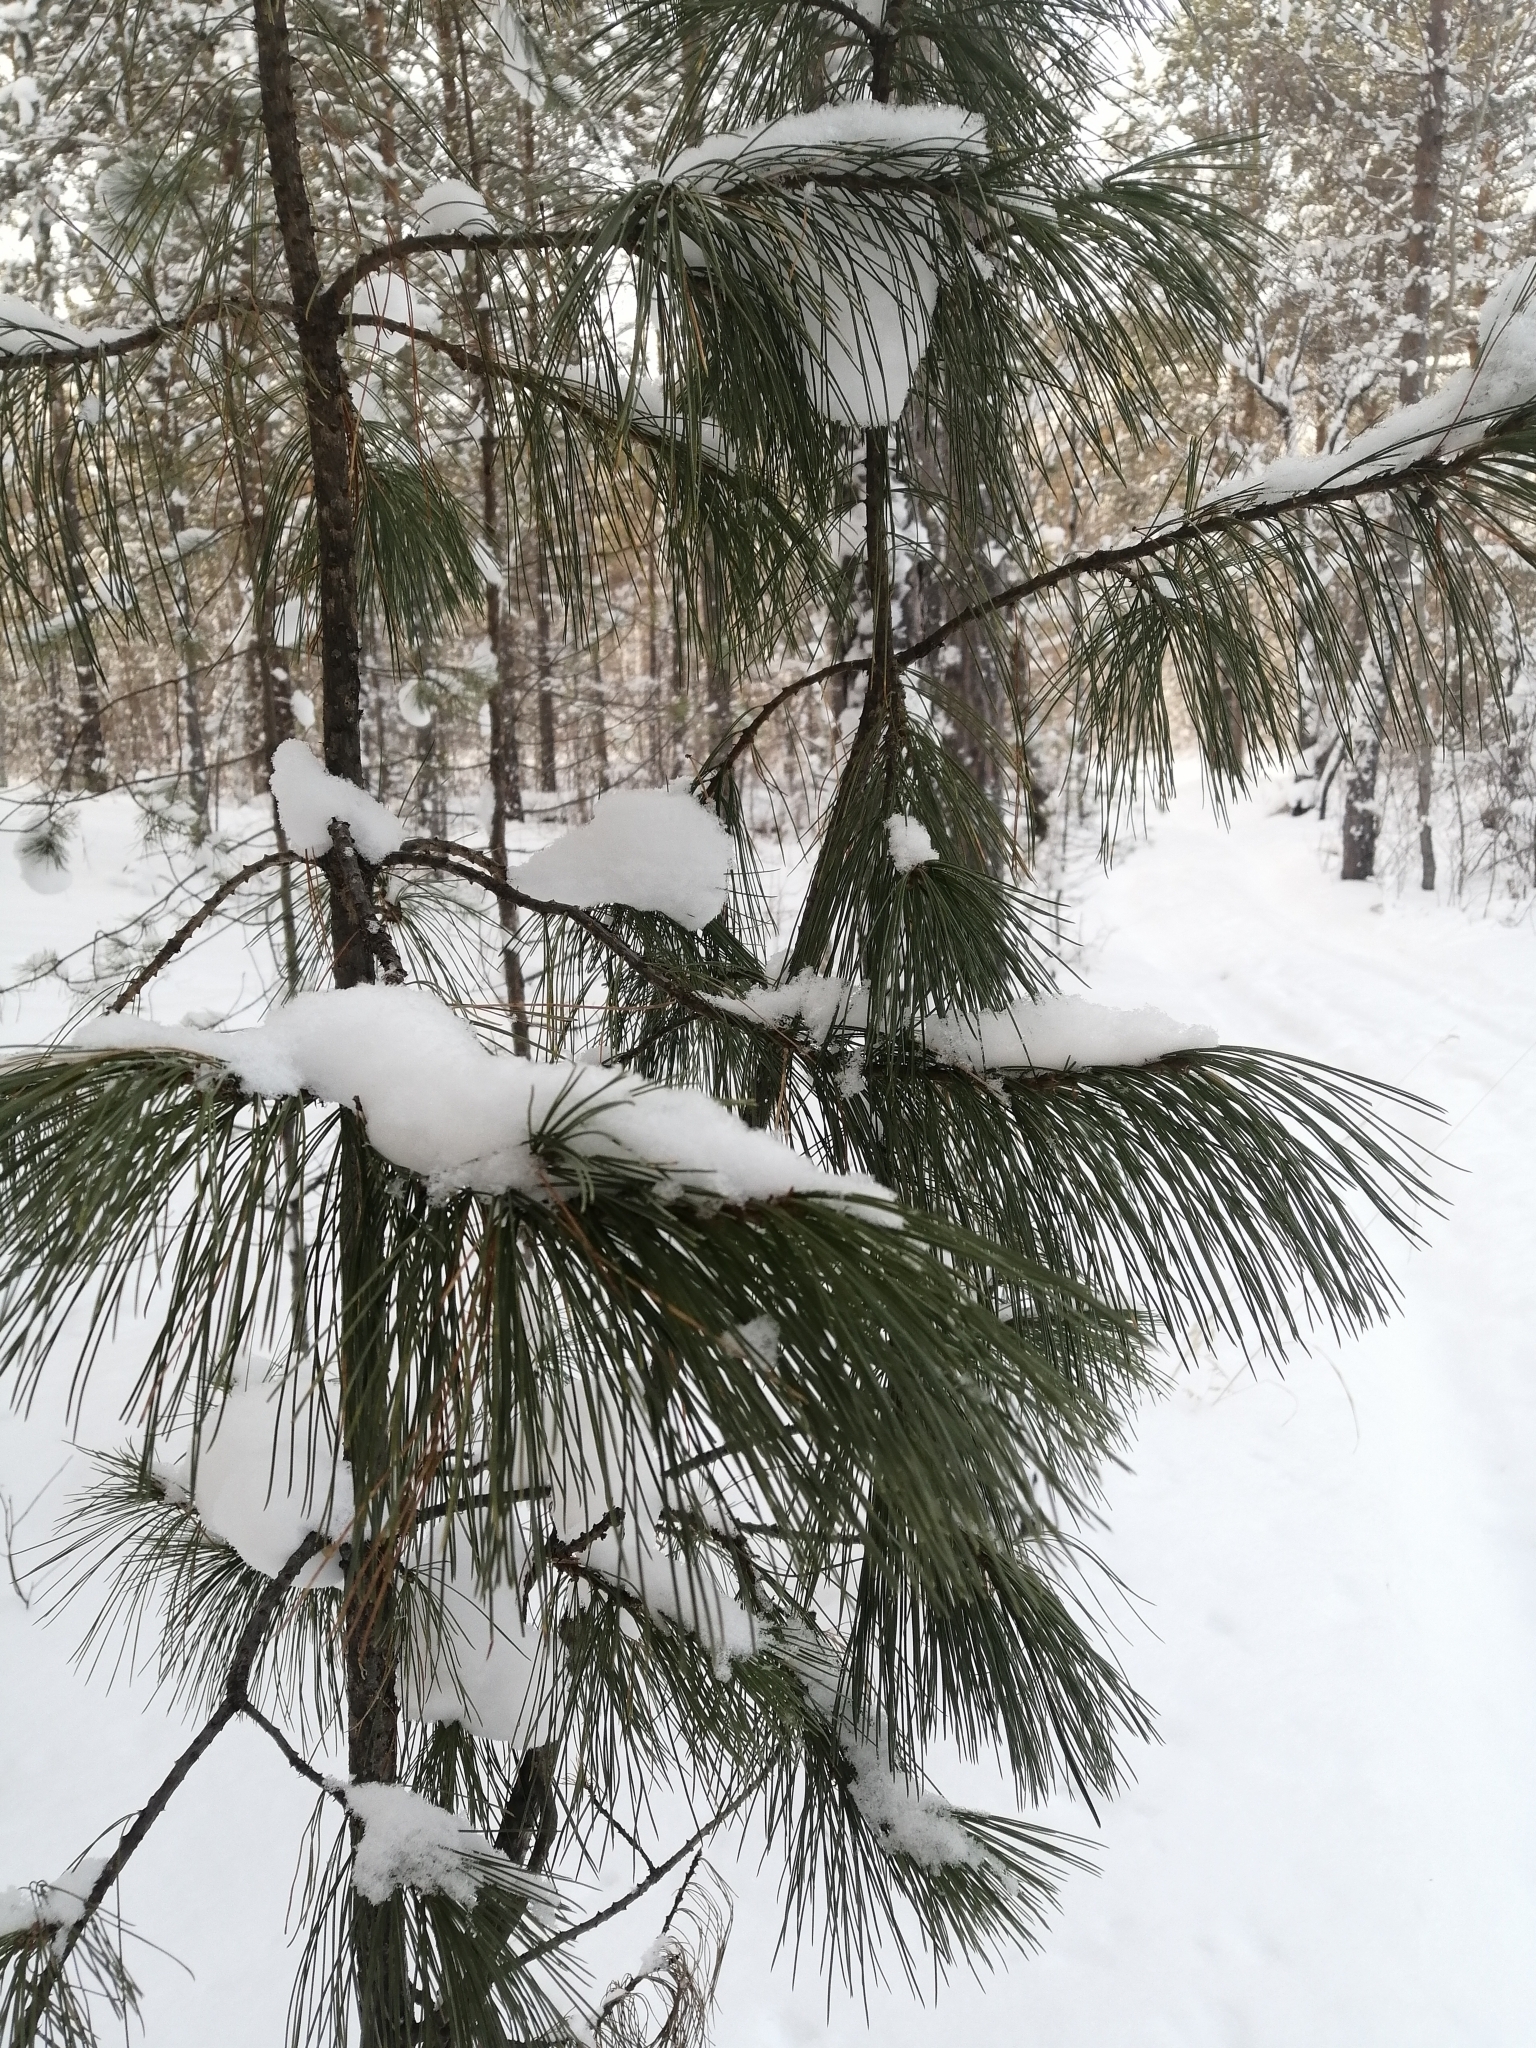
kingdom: Plantae
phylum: Tracheophyta
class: Pinopsida
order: Pinales
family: Pinaceae
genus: Pinus
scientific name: Pinus sibirica
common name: Siberian pine
